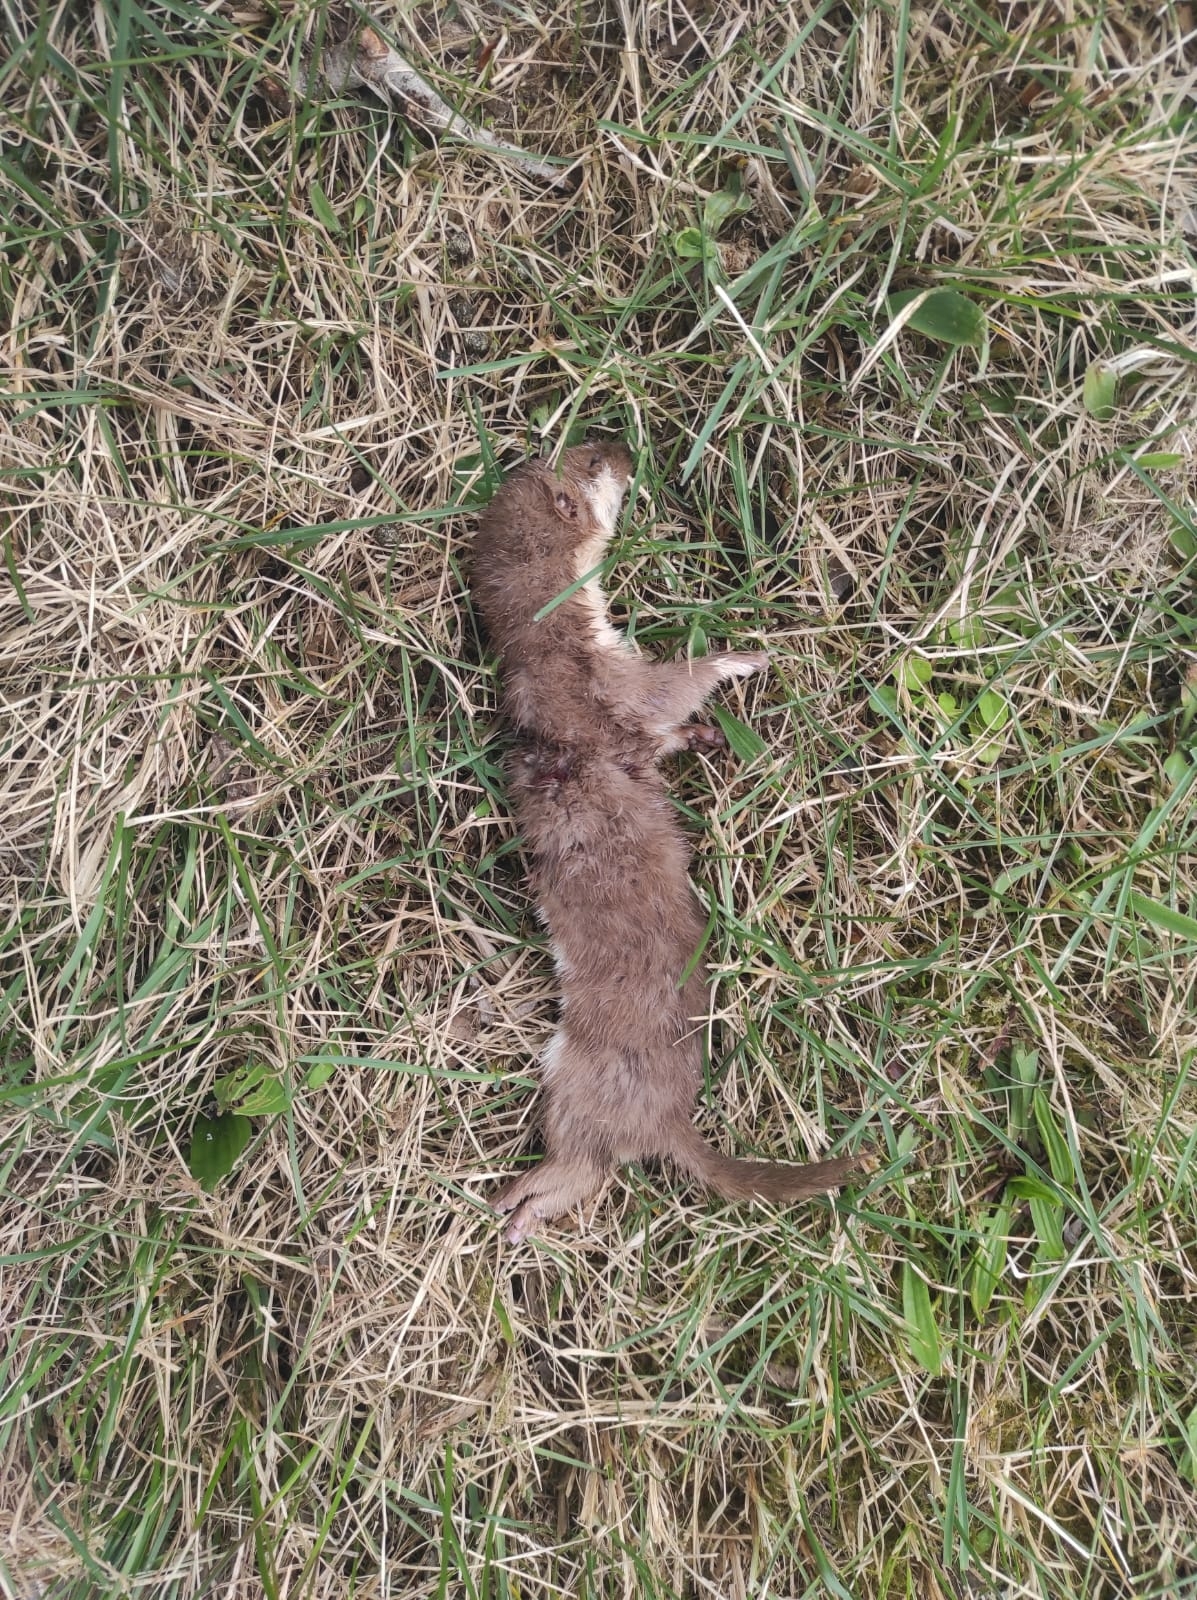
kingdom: Animalia
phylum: Chordata
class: Mammalia
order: Carnivora
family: Mustelidae
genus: Mustela
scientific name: Mustela nivalis
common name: Least weasel
